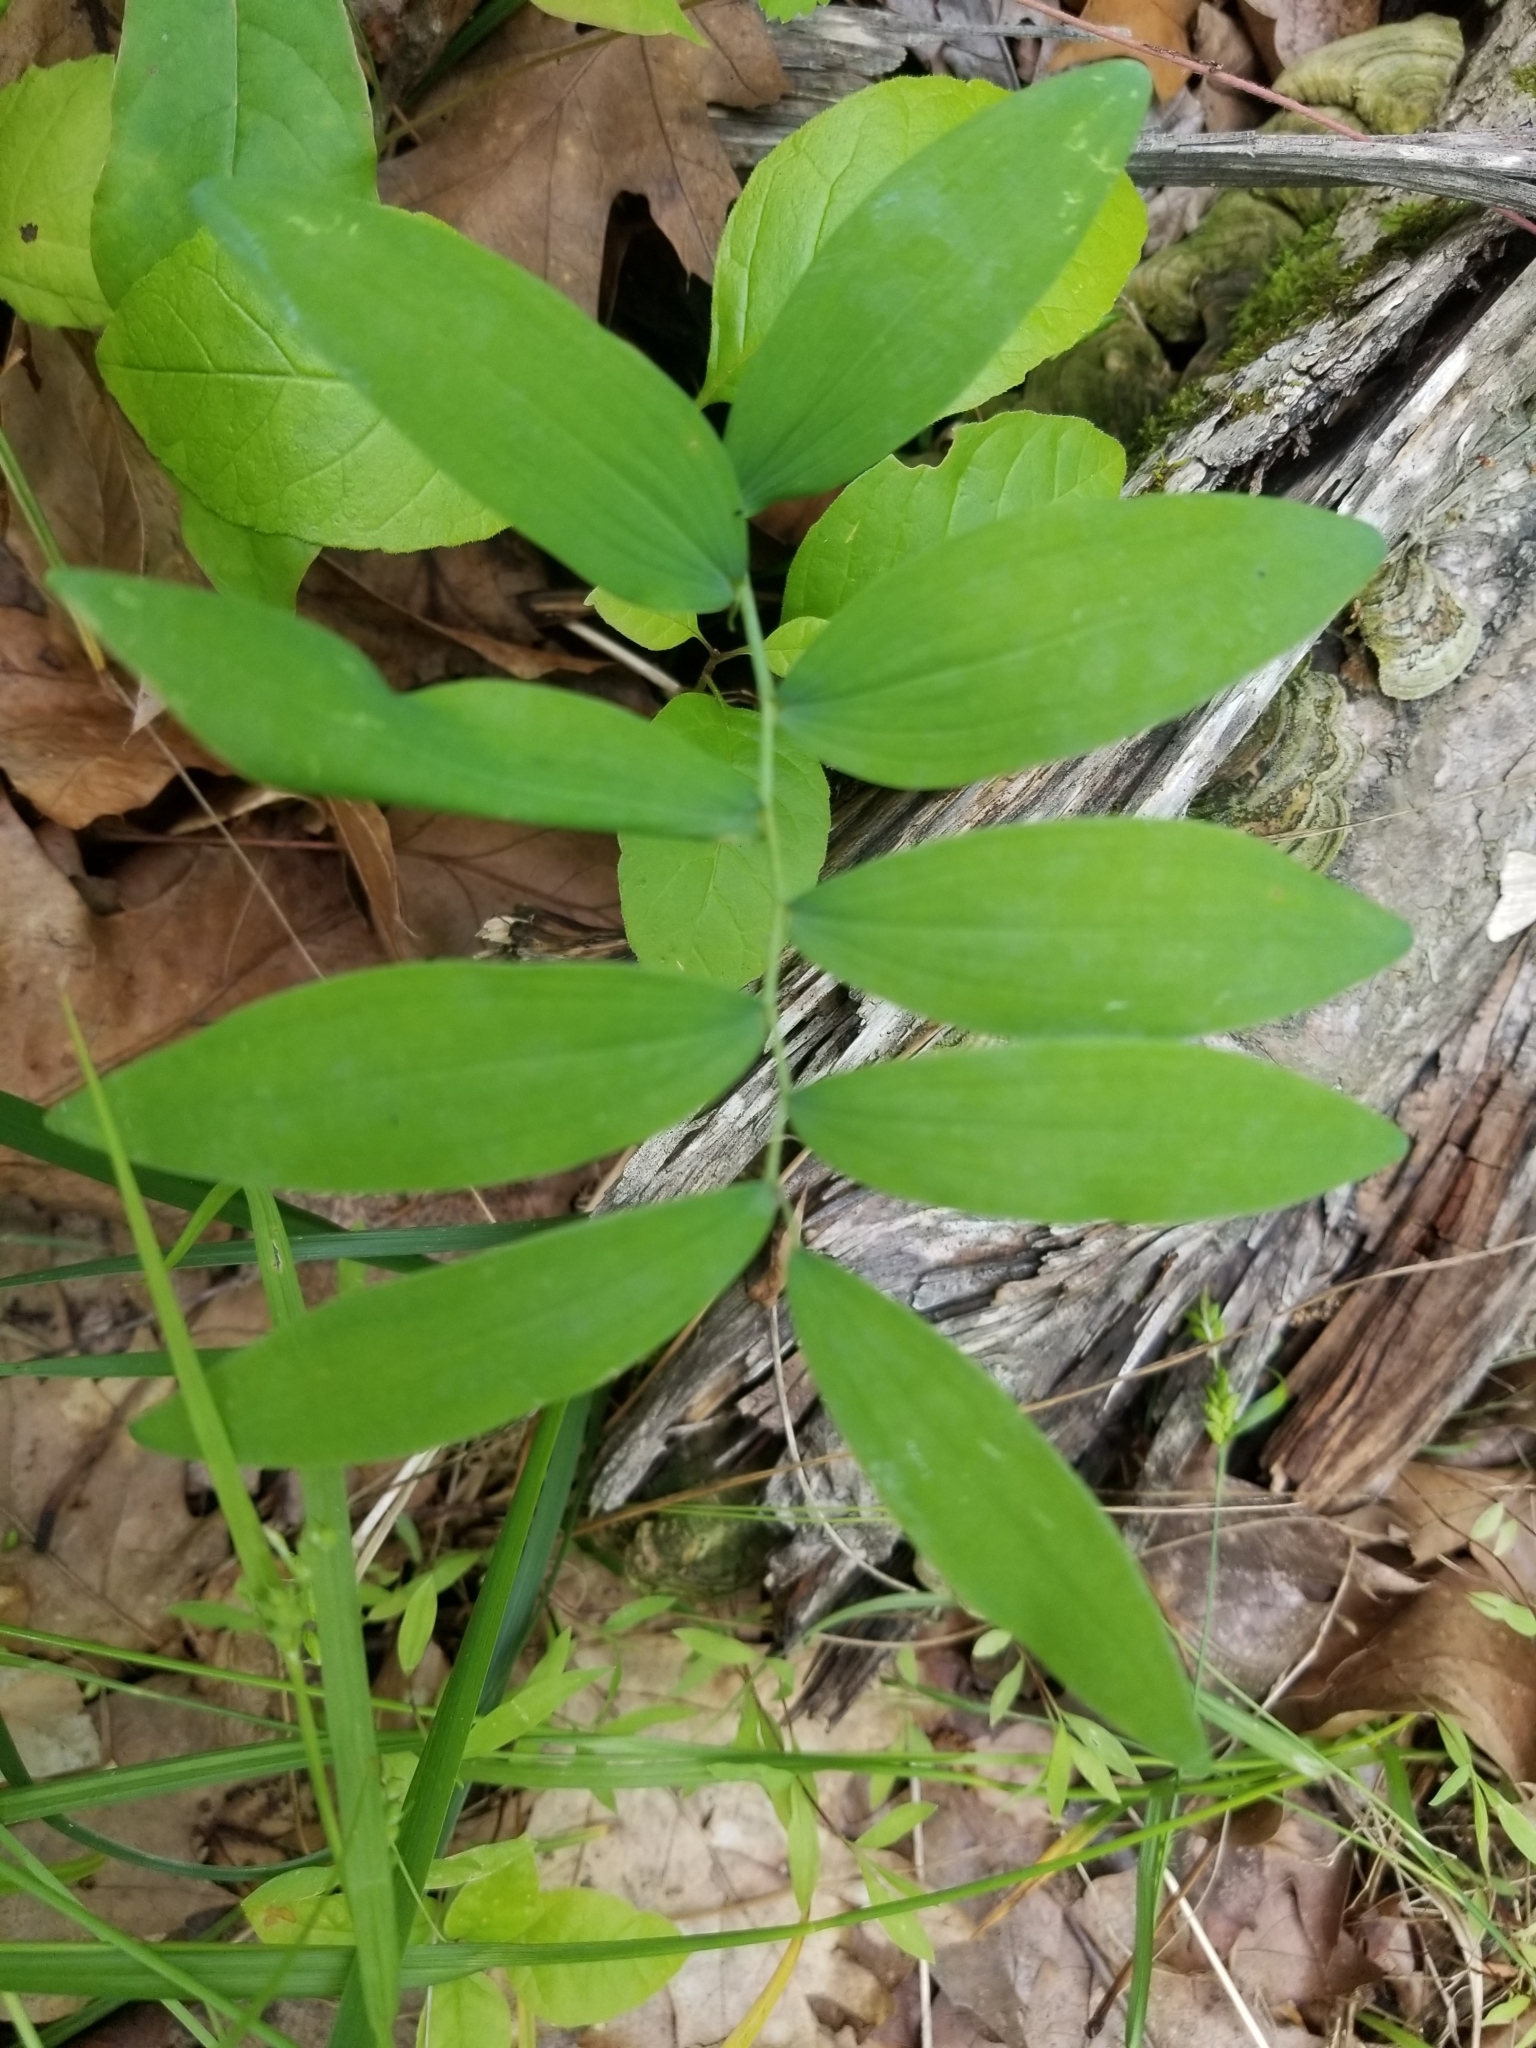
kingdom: Plantae
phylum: Tracheophyta
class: Liliopsida
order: Asparagales
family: Asparagaceae
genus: Polygonatum
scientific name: Polygonatum pubescens
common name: Downy solomon's seal
